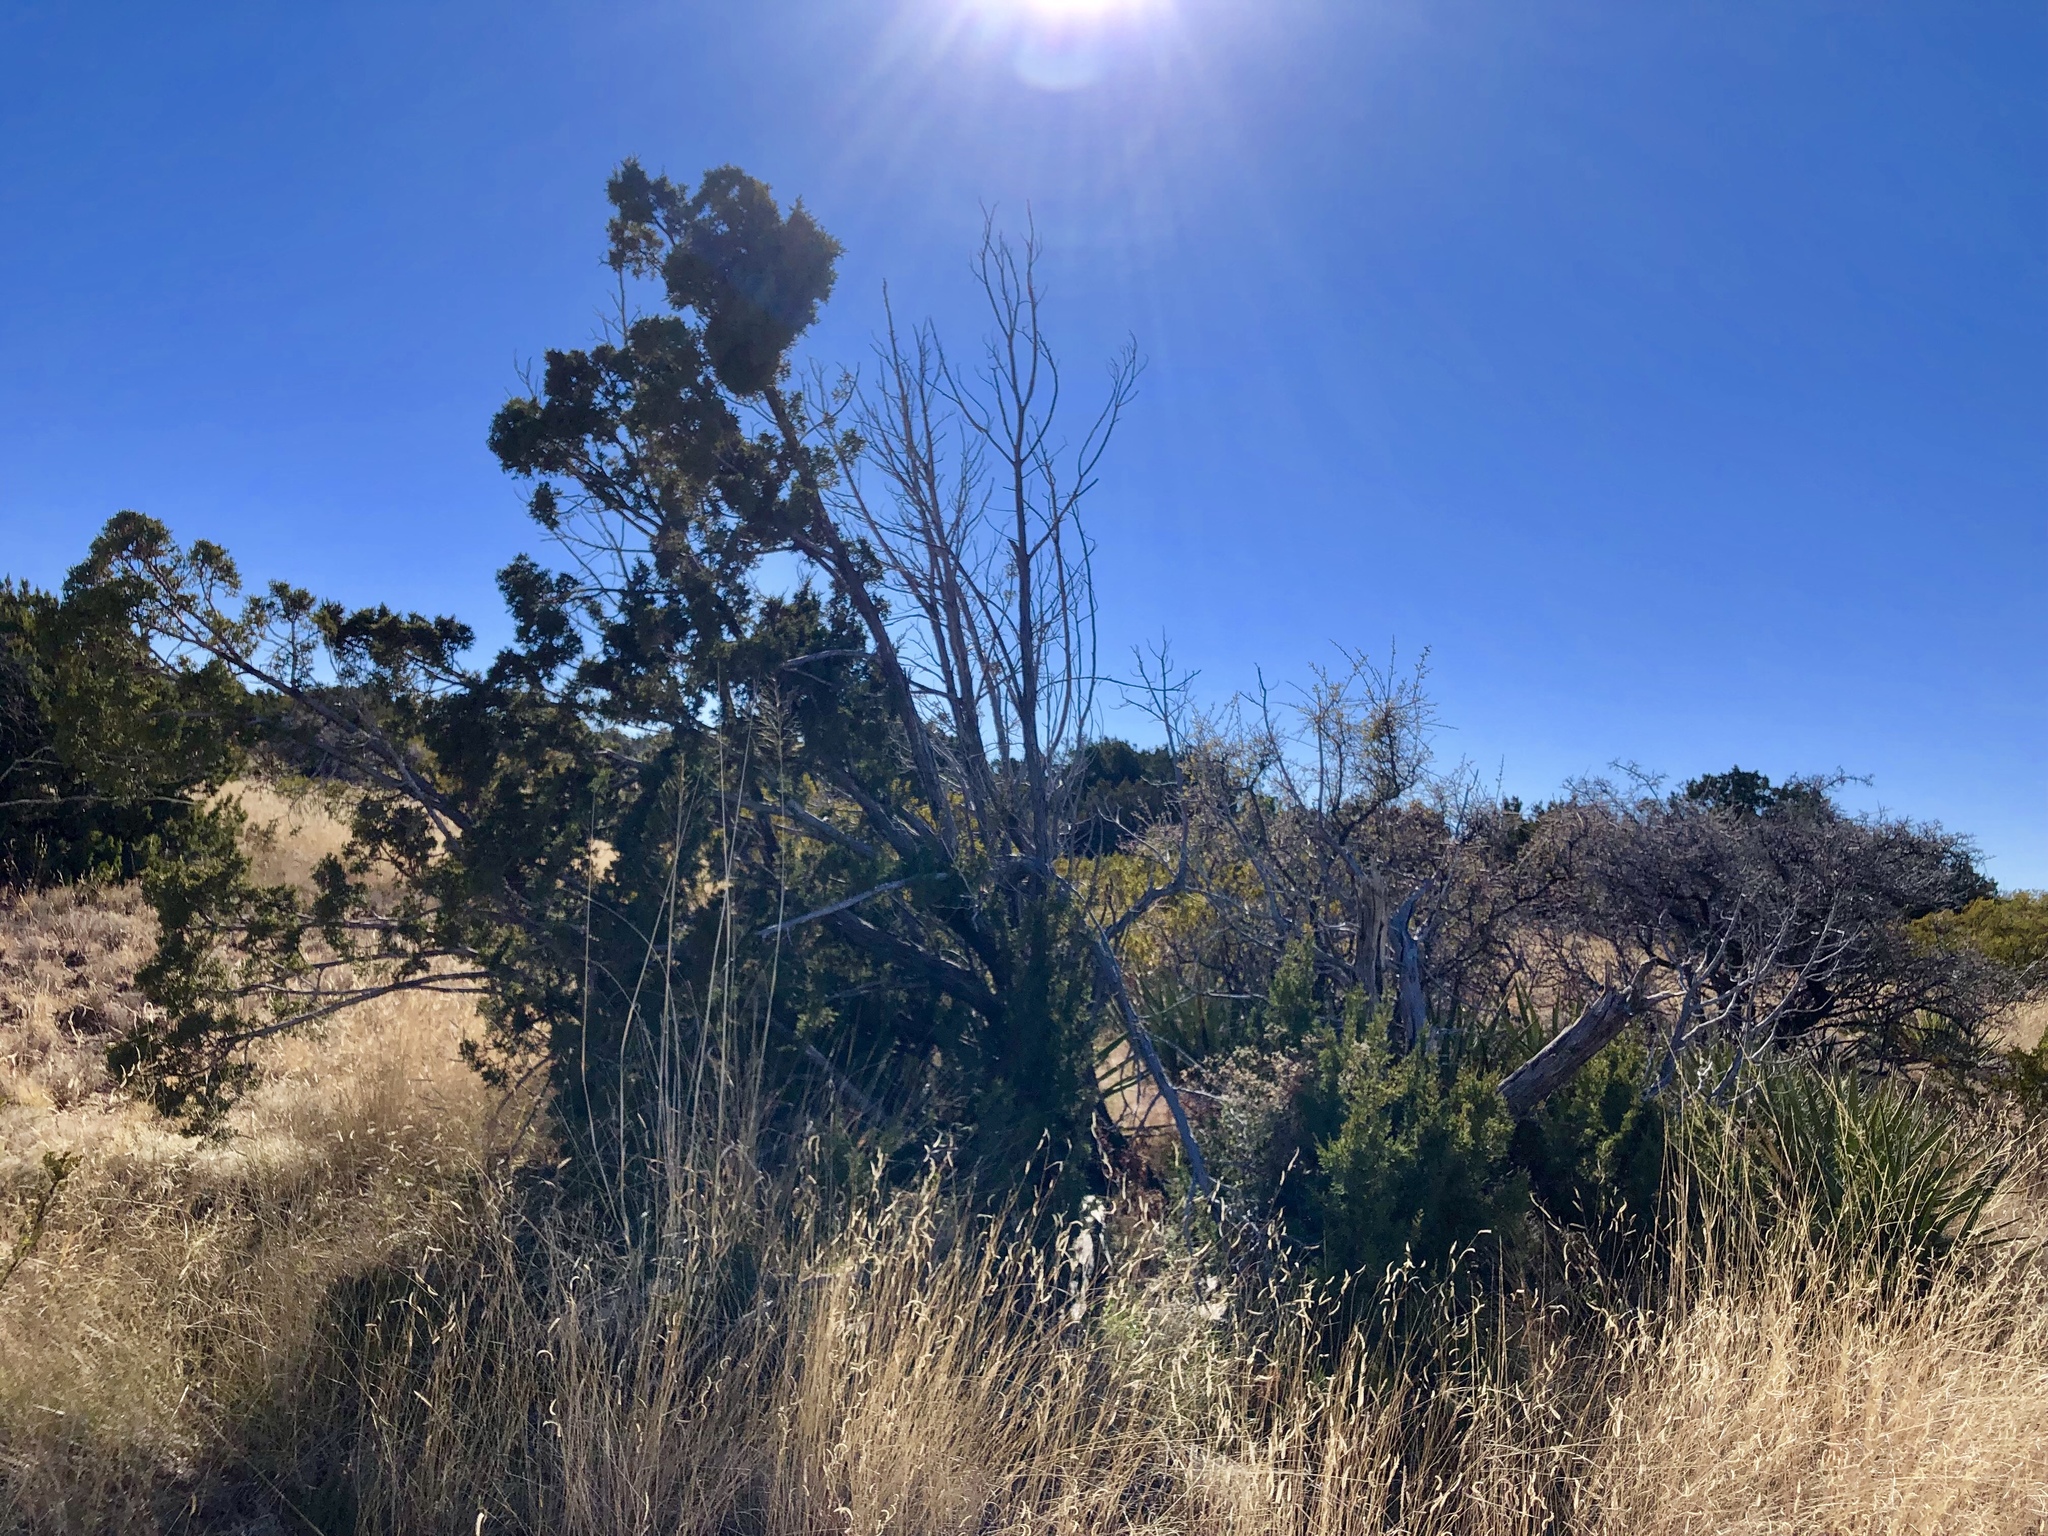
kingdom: Plantae
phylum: Tracheophyta
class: Pinopsida
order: Pinales
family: Cupressaceae
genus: Juniperus
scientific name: Juniperus monosperma
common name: One-seed juniper
